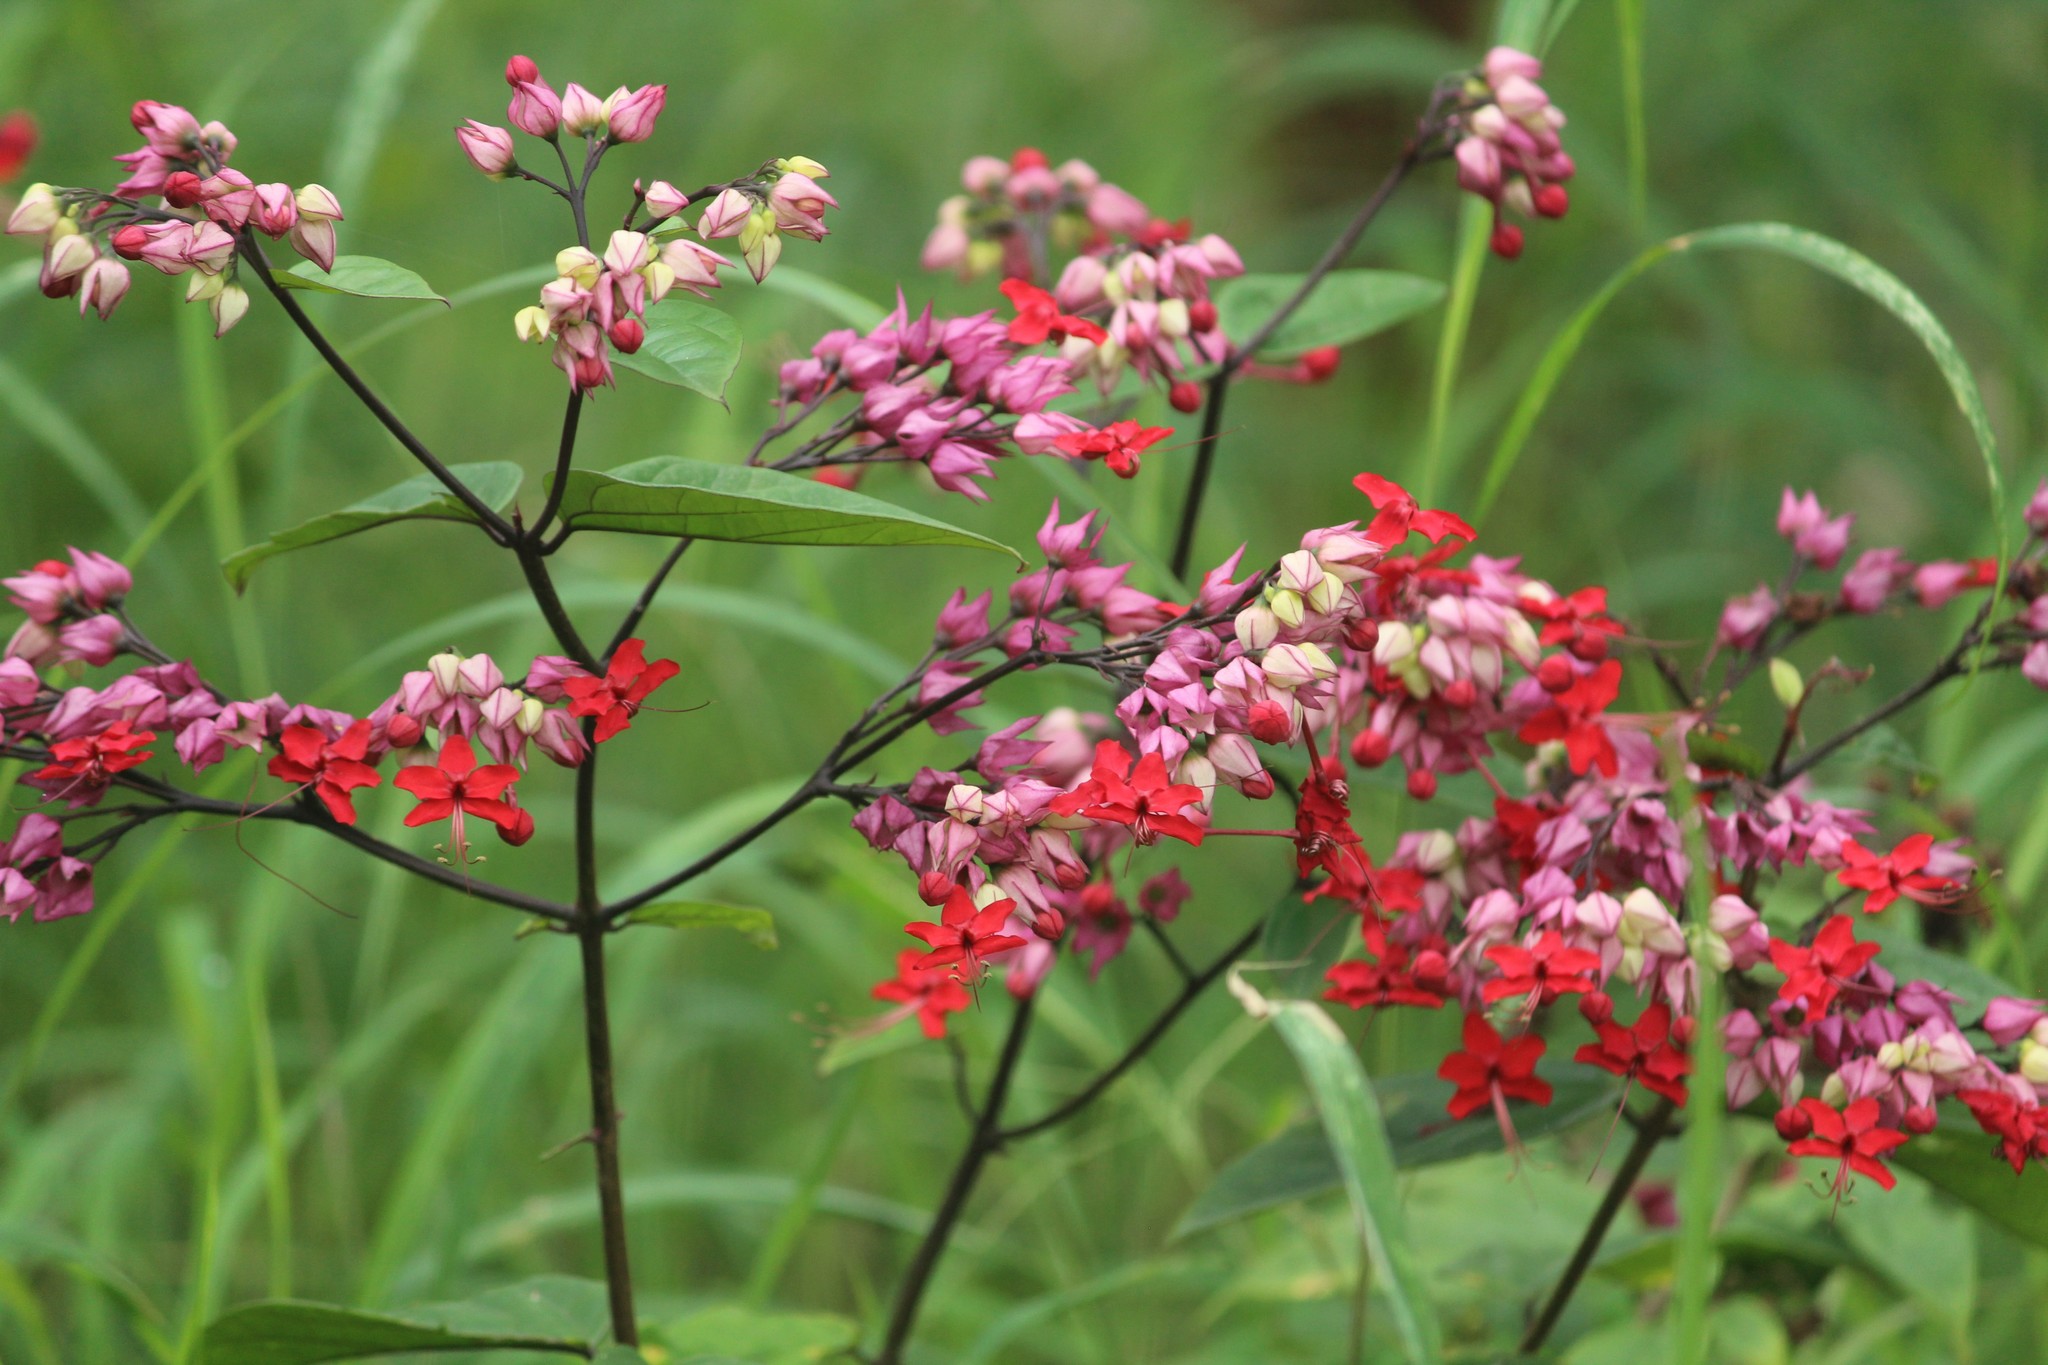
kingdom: Plantae
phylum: Tracheophyta
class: Magnoliopsida
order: Lamiales
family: Lamiaceae
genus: Clerodendrum
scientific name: Clerodendrum speciosum
